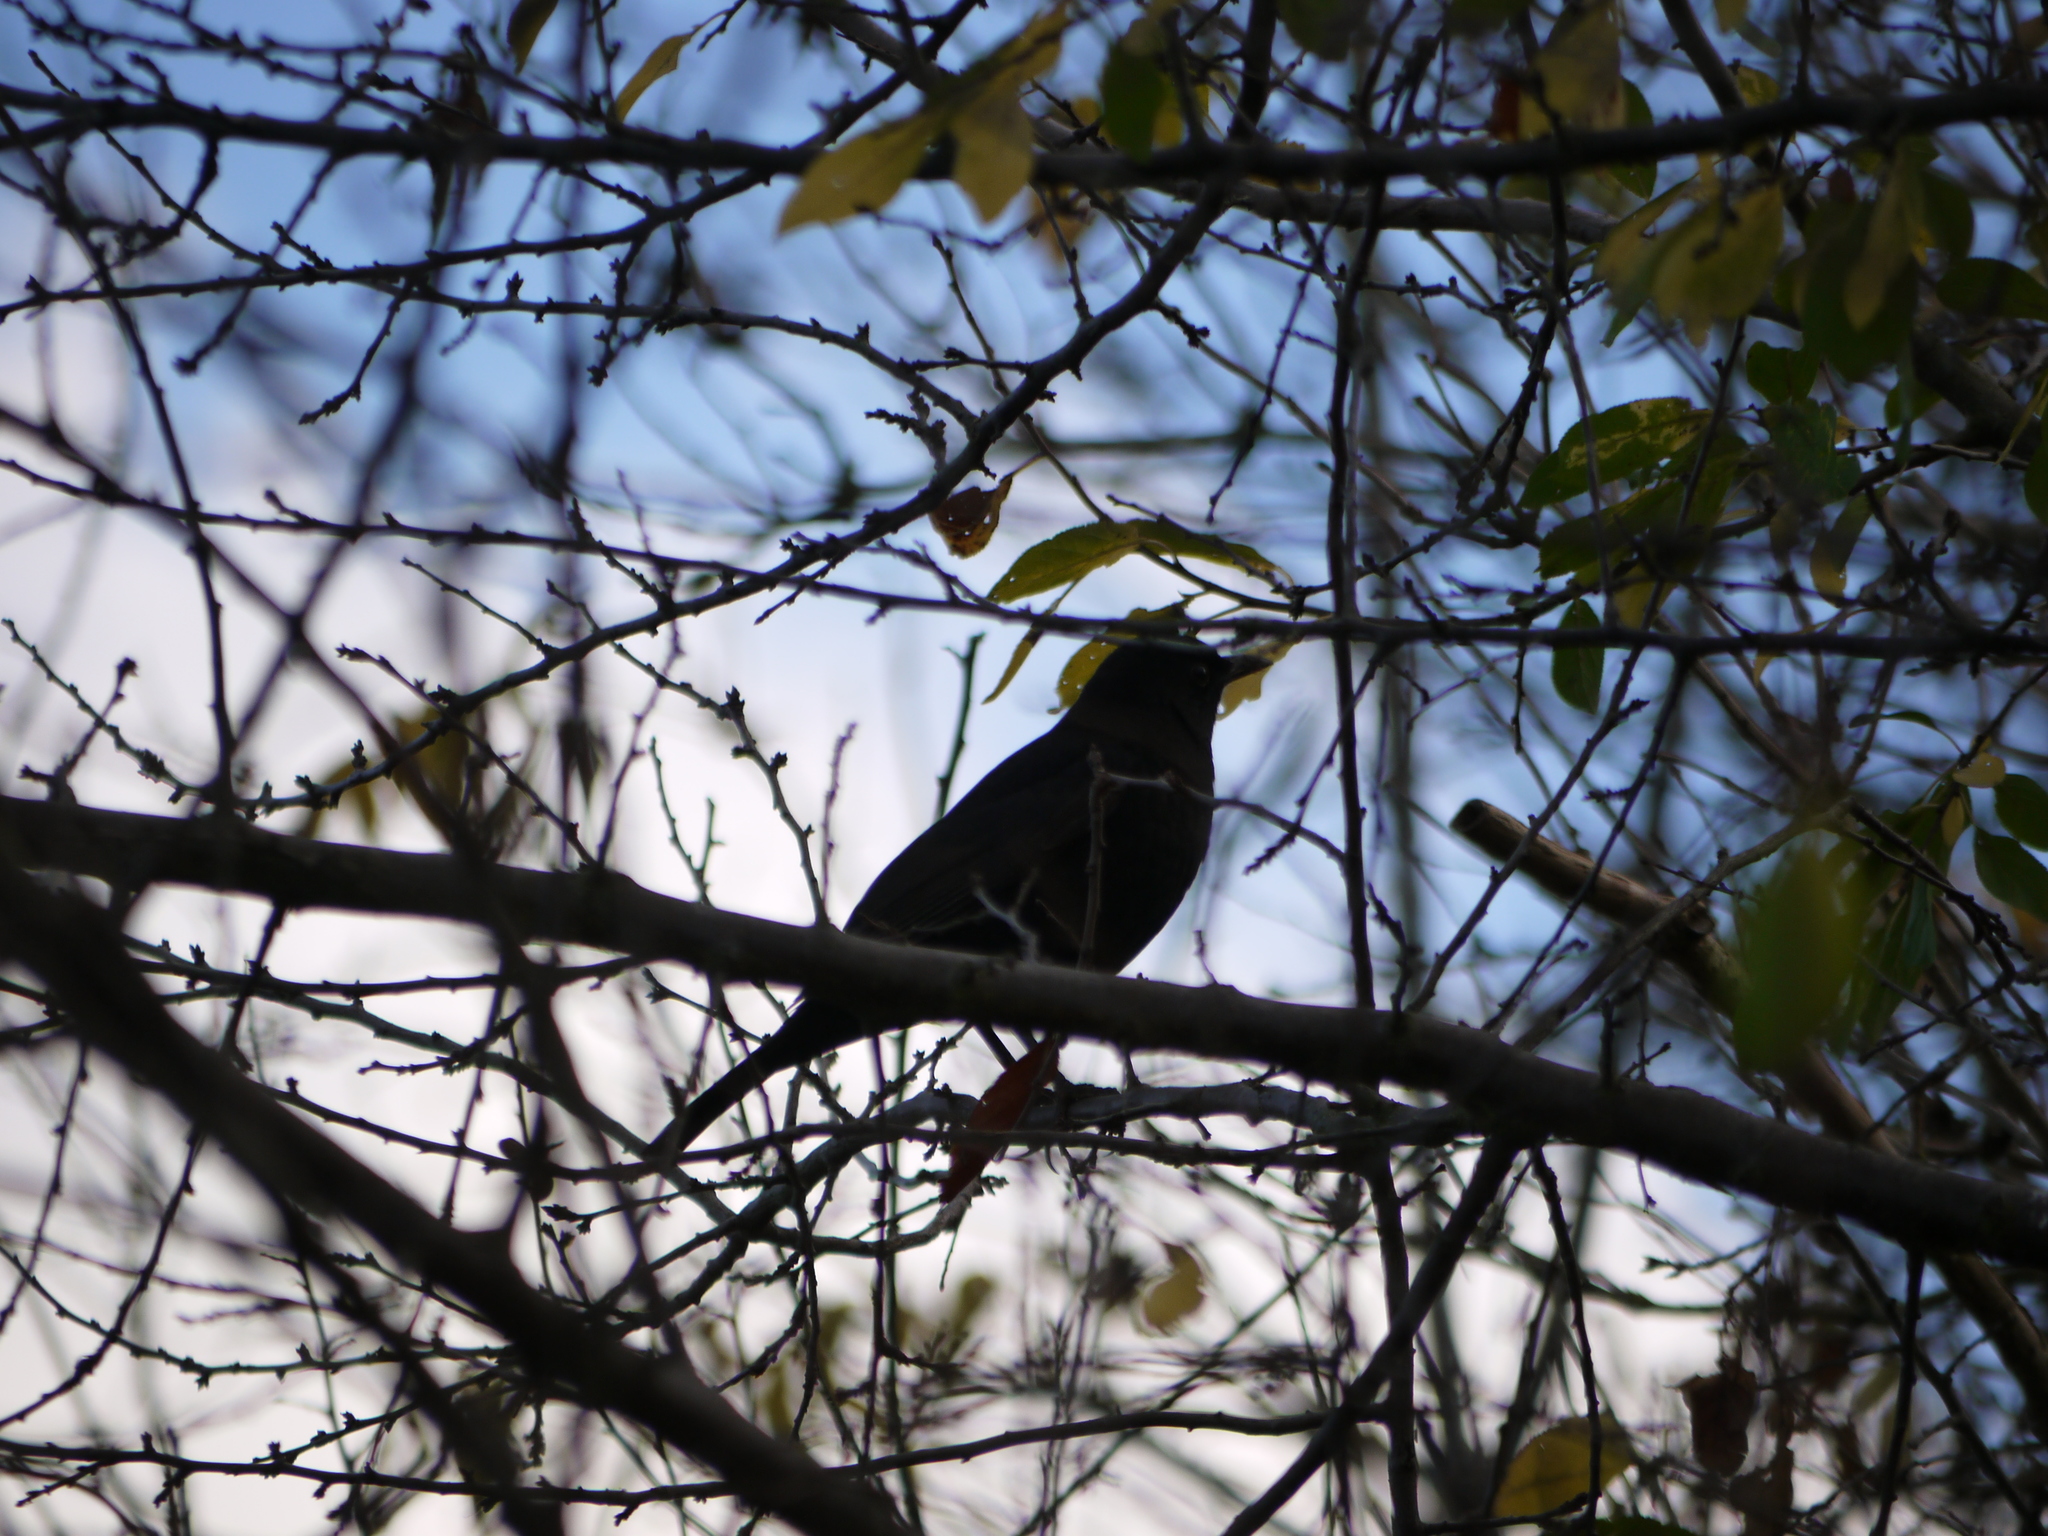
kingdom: Animalia
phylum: Chordata
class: Aves
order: Passeriformes
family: Turdidae
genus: Turdus
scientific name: Turdus merula
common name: Common blackbird
